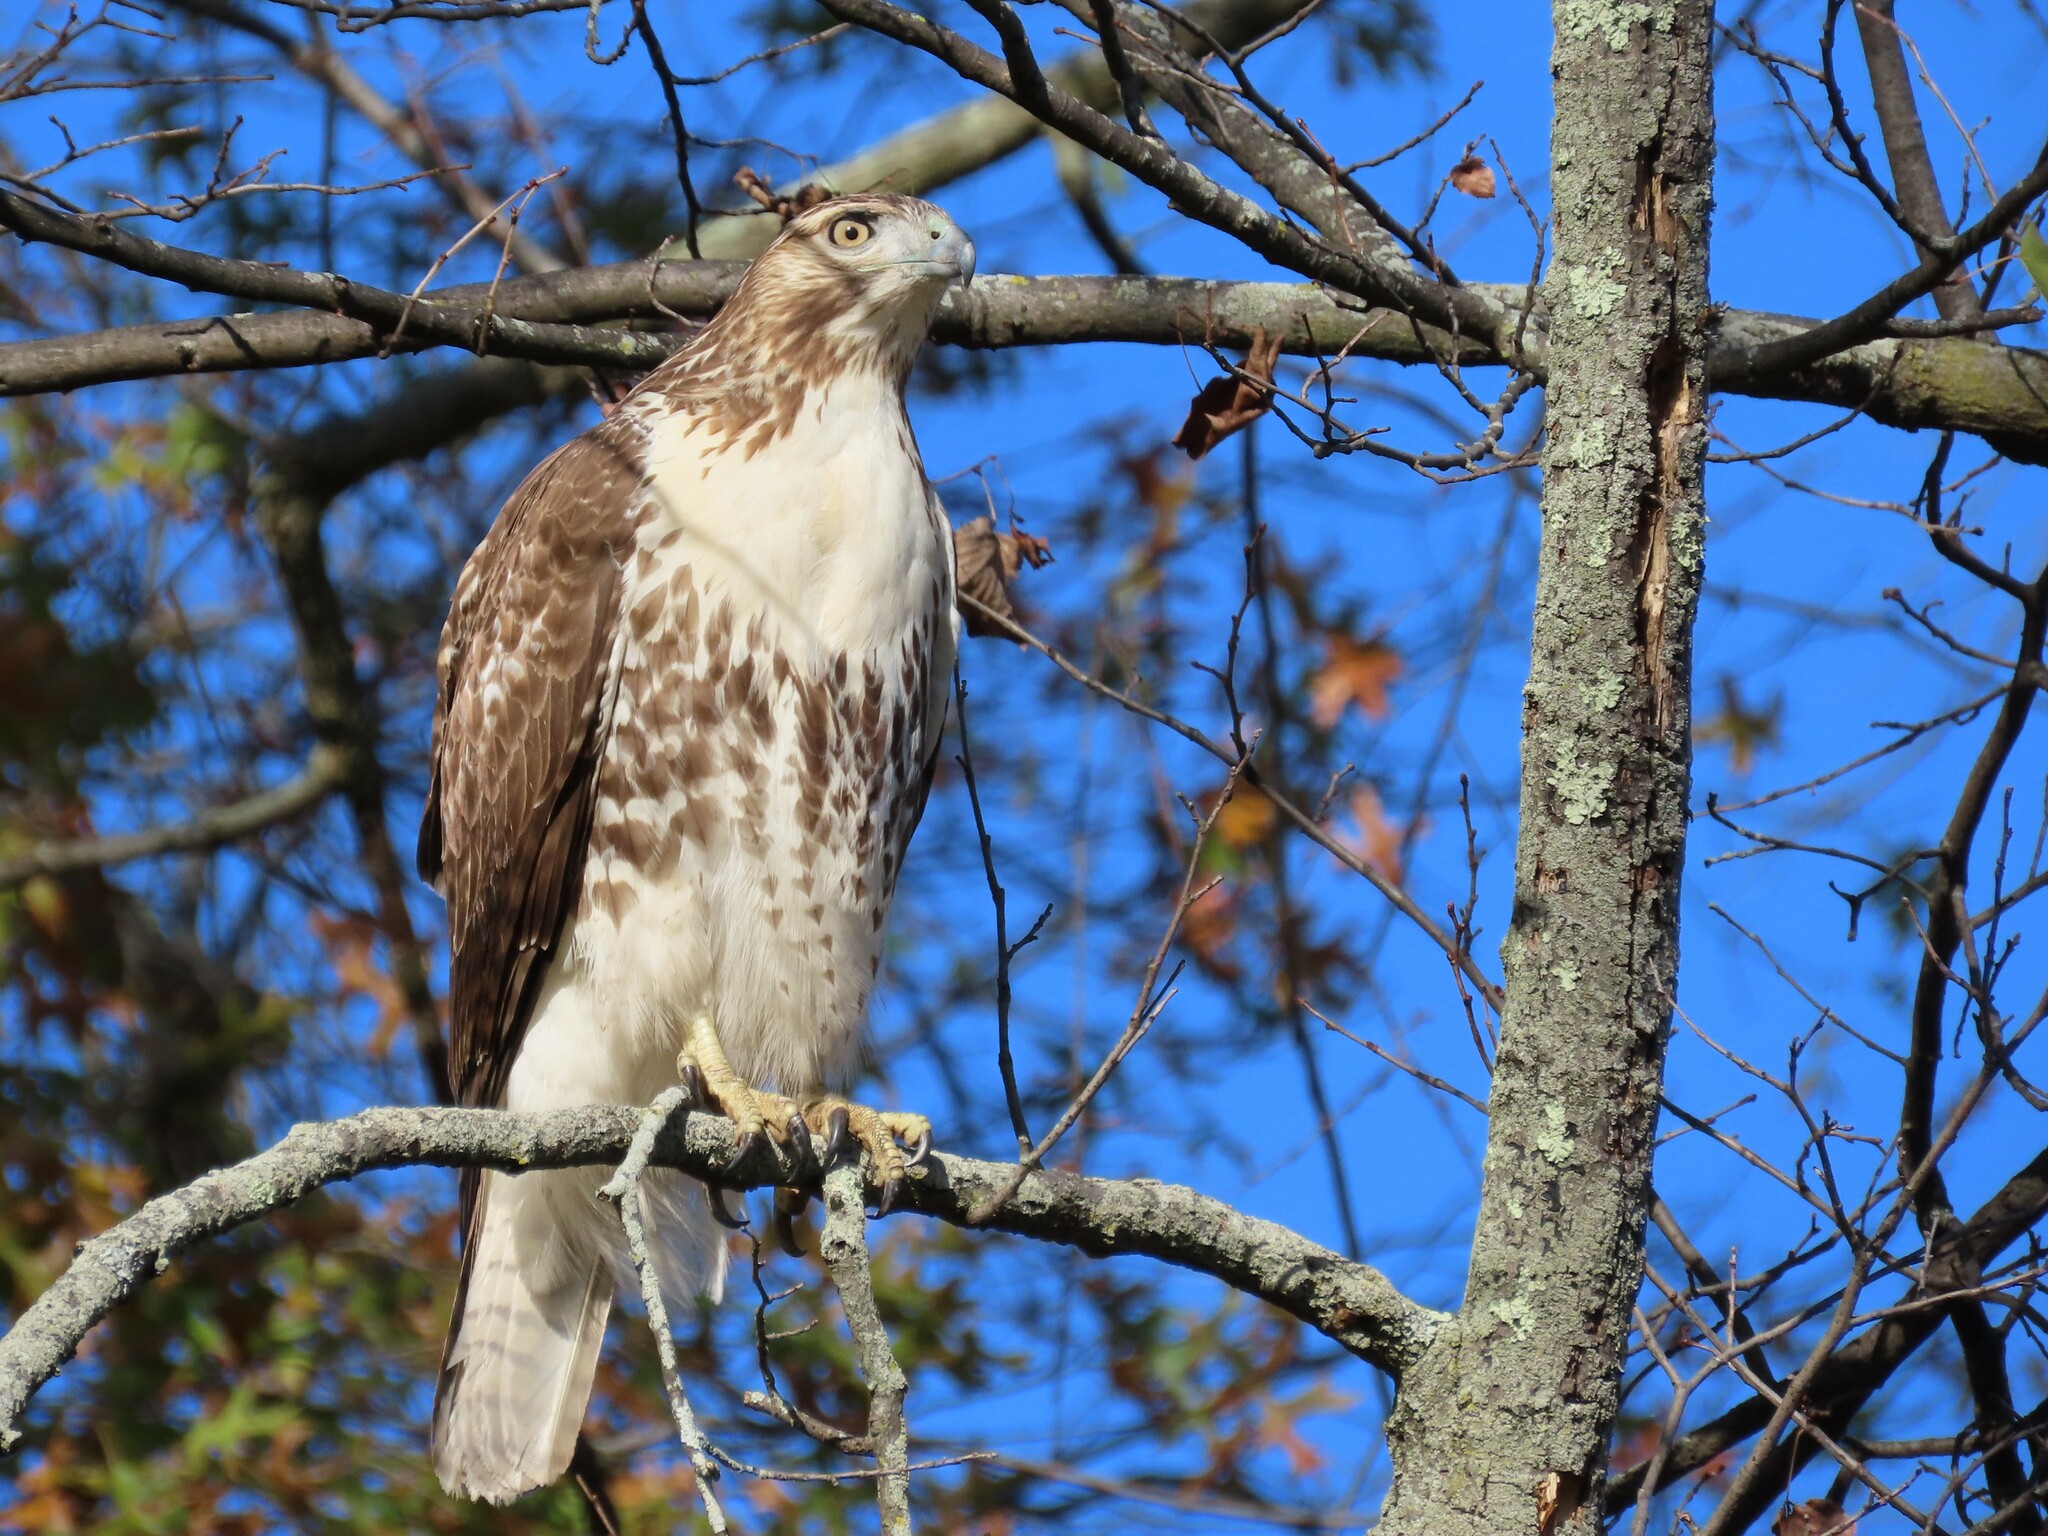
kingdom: Animalia
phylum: Chordata
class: Aves
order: Accipitriformes
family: Accipitridae
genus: Buteo
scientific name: Buteo jamaicensis
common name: Red-tailed hawk
